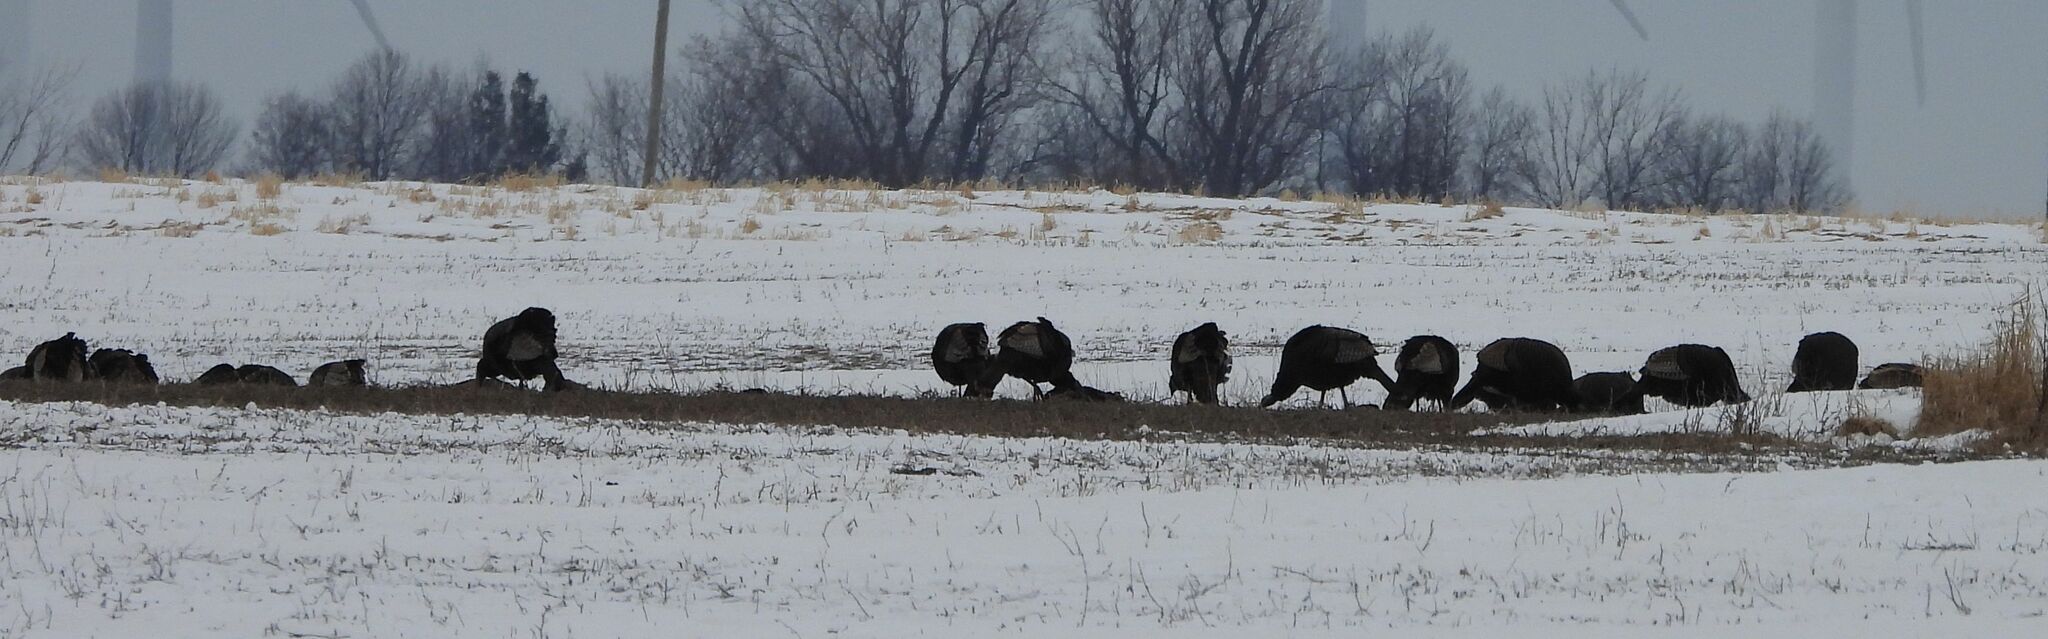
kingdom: Animalia
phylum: Chordata
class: Aves
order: Galliformes
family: Phasianidae
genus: Meleagris
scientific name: Meleagris gallopavo
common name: Wild turkey
